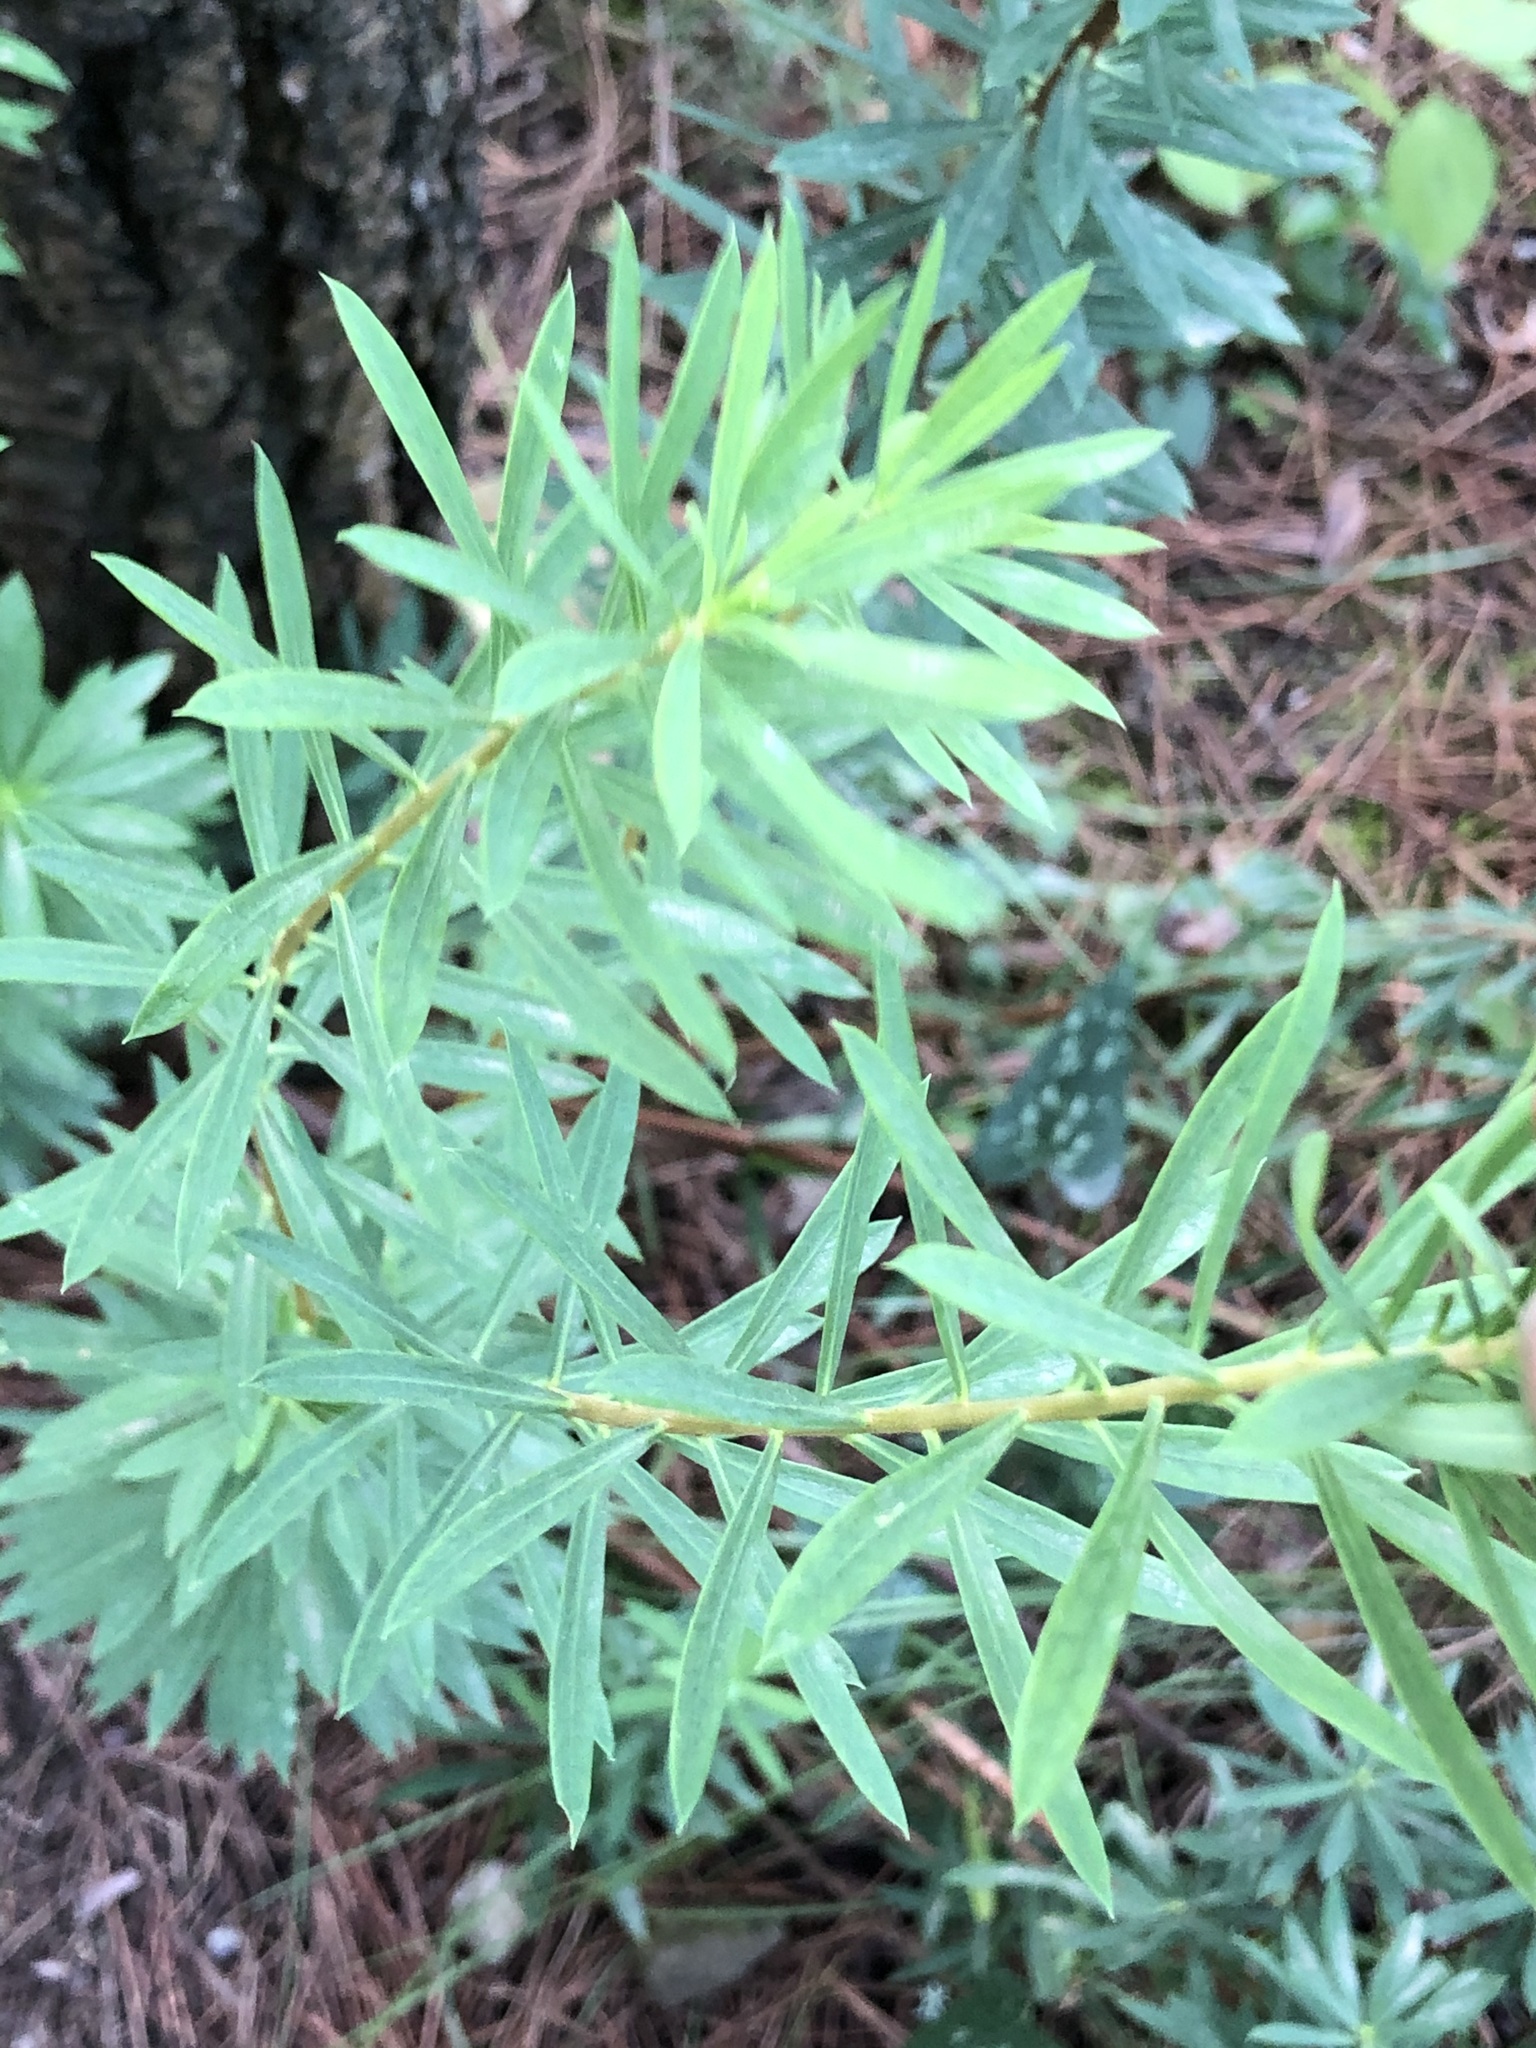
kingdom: Plantae
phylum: Tracheophyta
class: Magnoliopsida
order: Malvales
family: Thymelaeaceae
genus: Daphne
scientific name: Daphne gnidium
